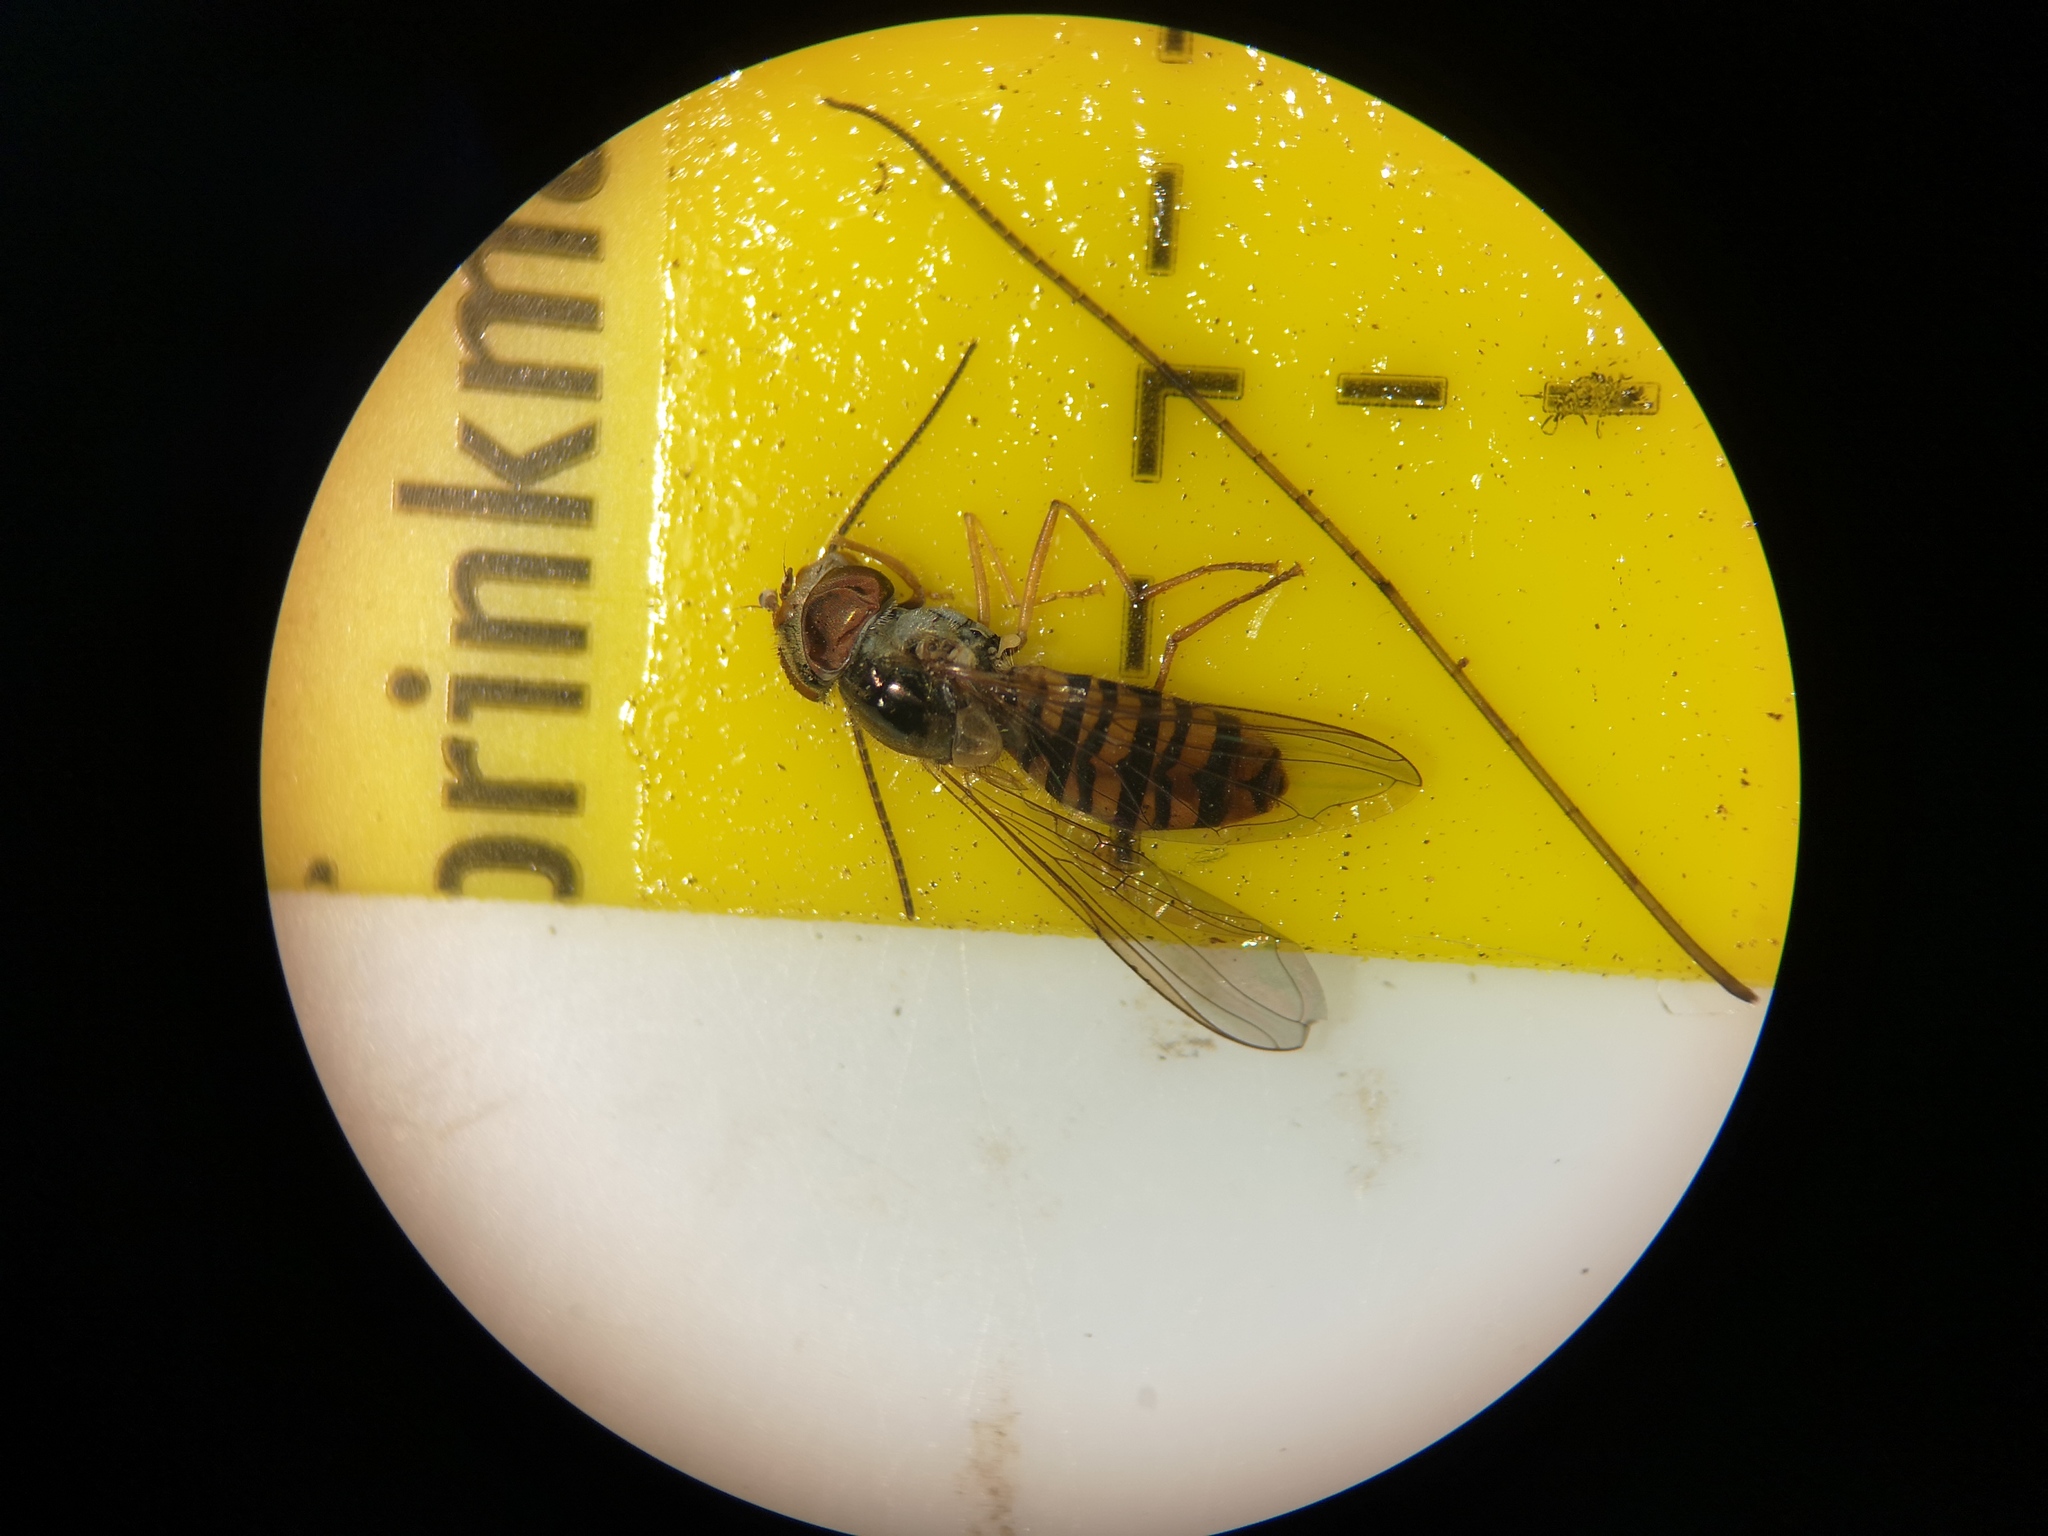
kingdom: Animalia
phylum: Arthropoda
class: Insecta
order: Diptera
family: Syrphidae
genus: Episyrphus
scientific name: Episyrphus balteatus
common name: Marmalade hoverfly
